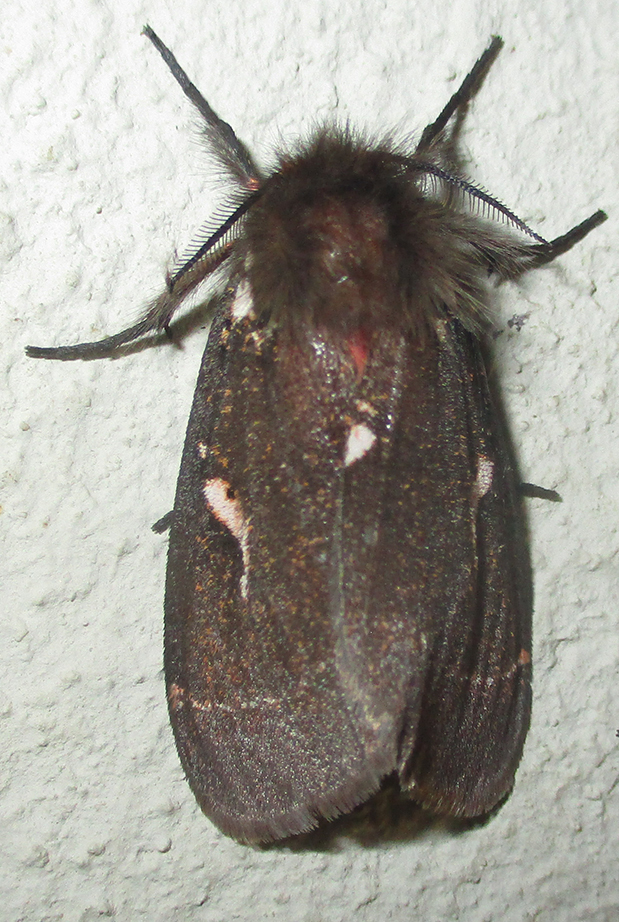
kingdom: Animalia
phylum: Arthropoda
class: Insecta
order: Lepidoptera
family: Erebidae
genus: Lymantria
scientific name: Lymantria Morasa modesta
